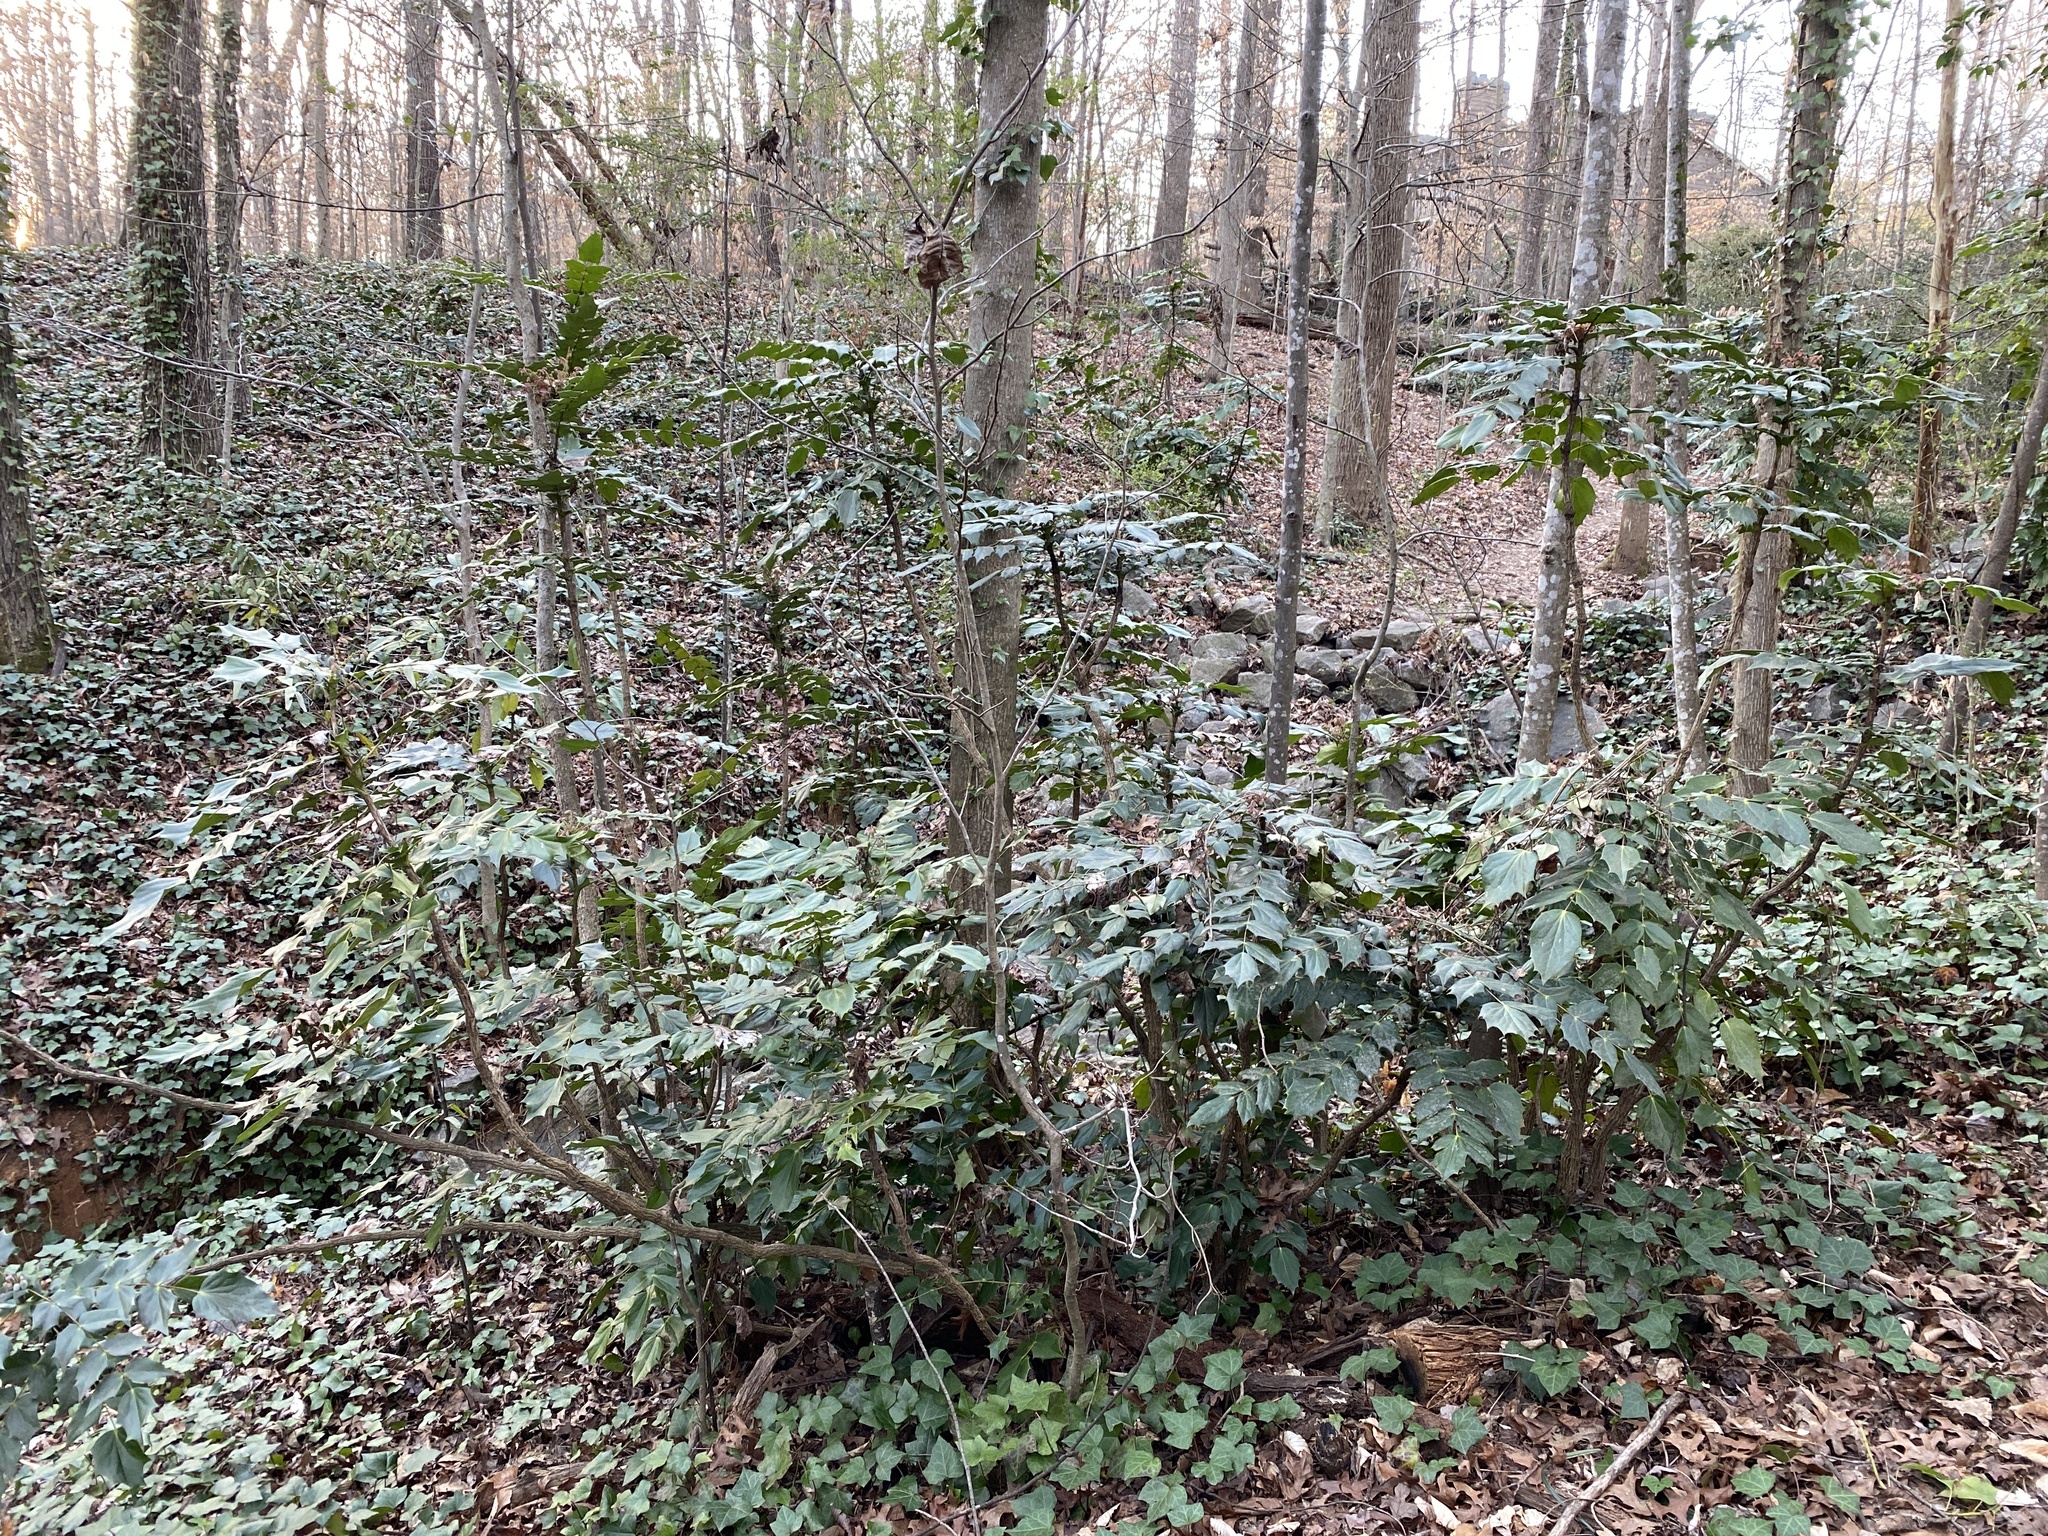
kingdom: Plantae
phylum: Tracheophyta
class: Magnoliopsida
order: Ranunculales
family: Berberidaceae
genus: Mahonia
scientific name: Mahonia bealei
